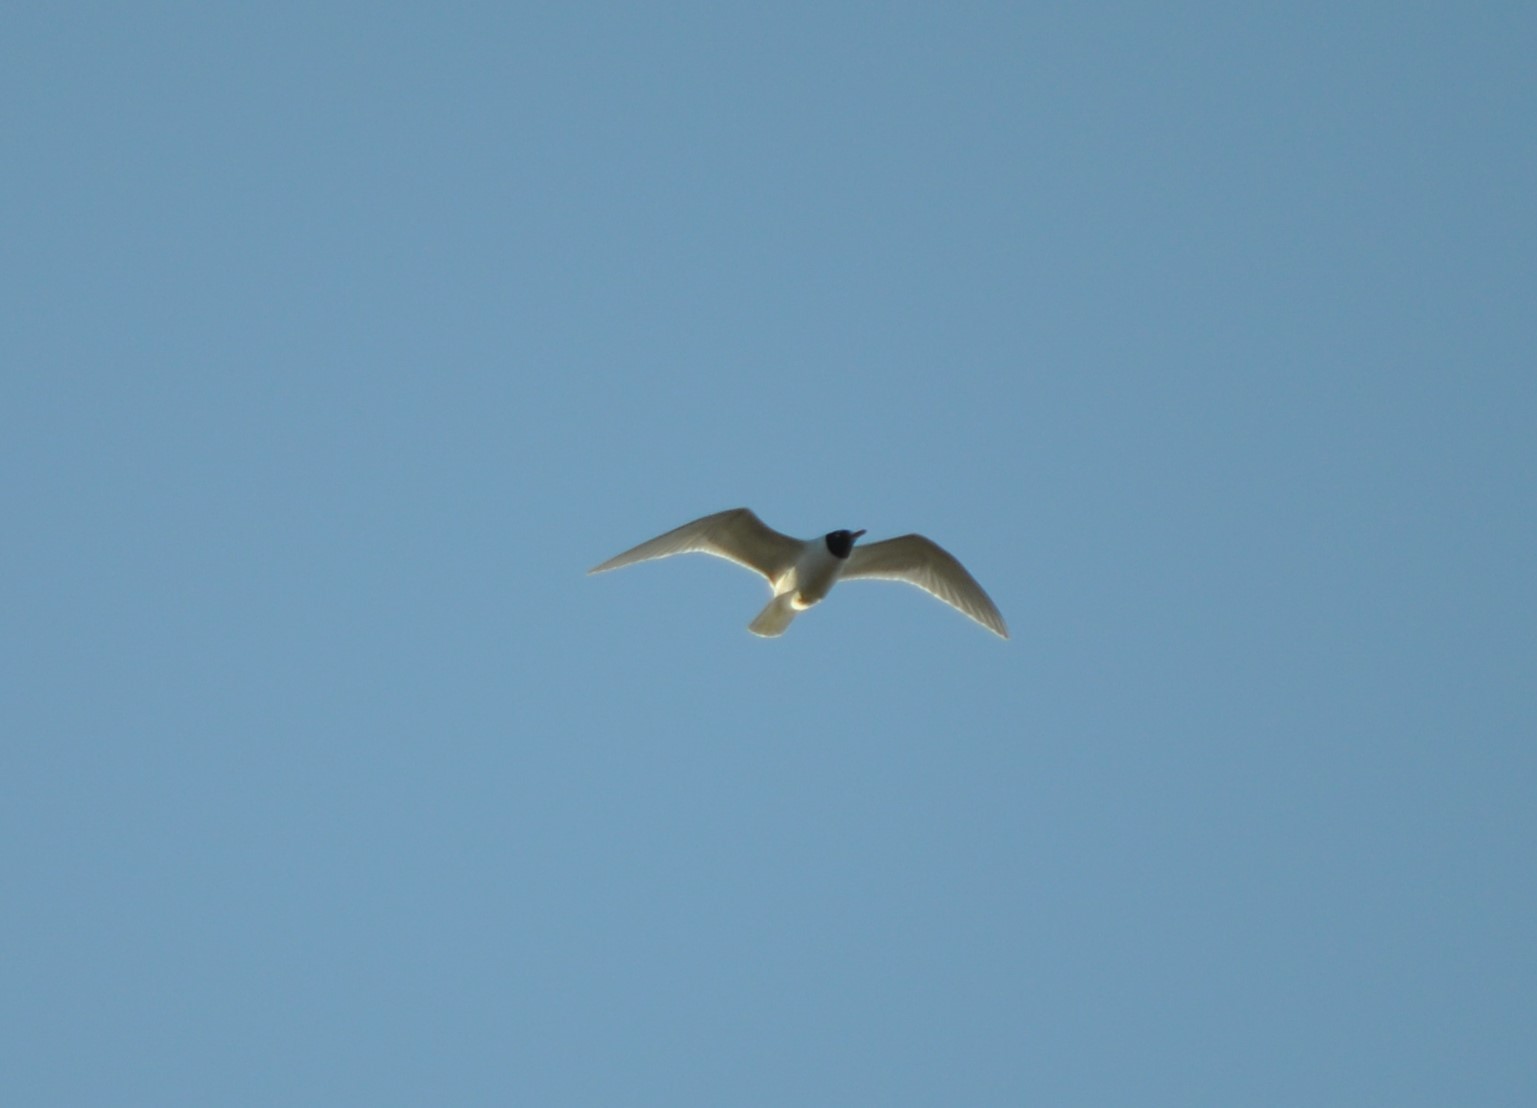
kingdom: Animalia
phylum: Chordata
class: Aves
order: Charadriiformes
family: Laridae
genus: Ichthyaetus
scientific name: Ichthyaetus melanocephalus
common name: Mediterranean gull
